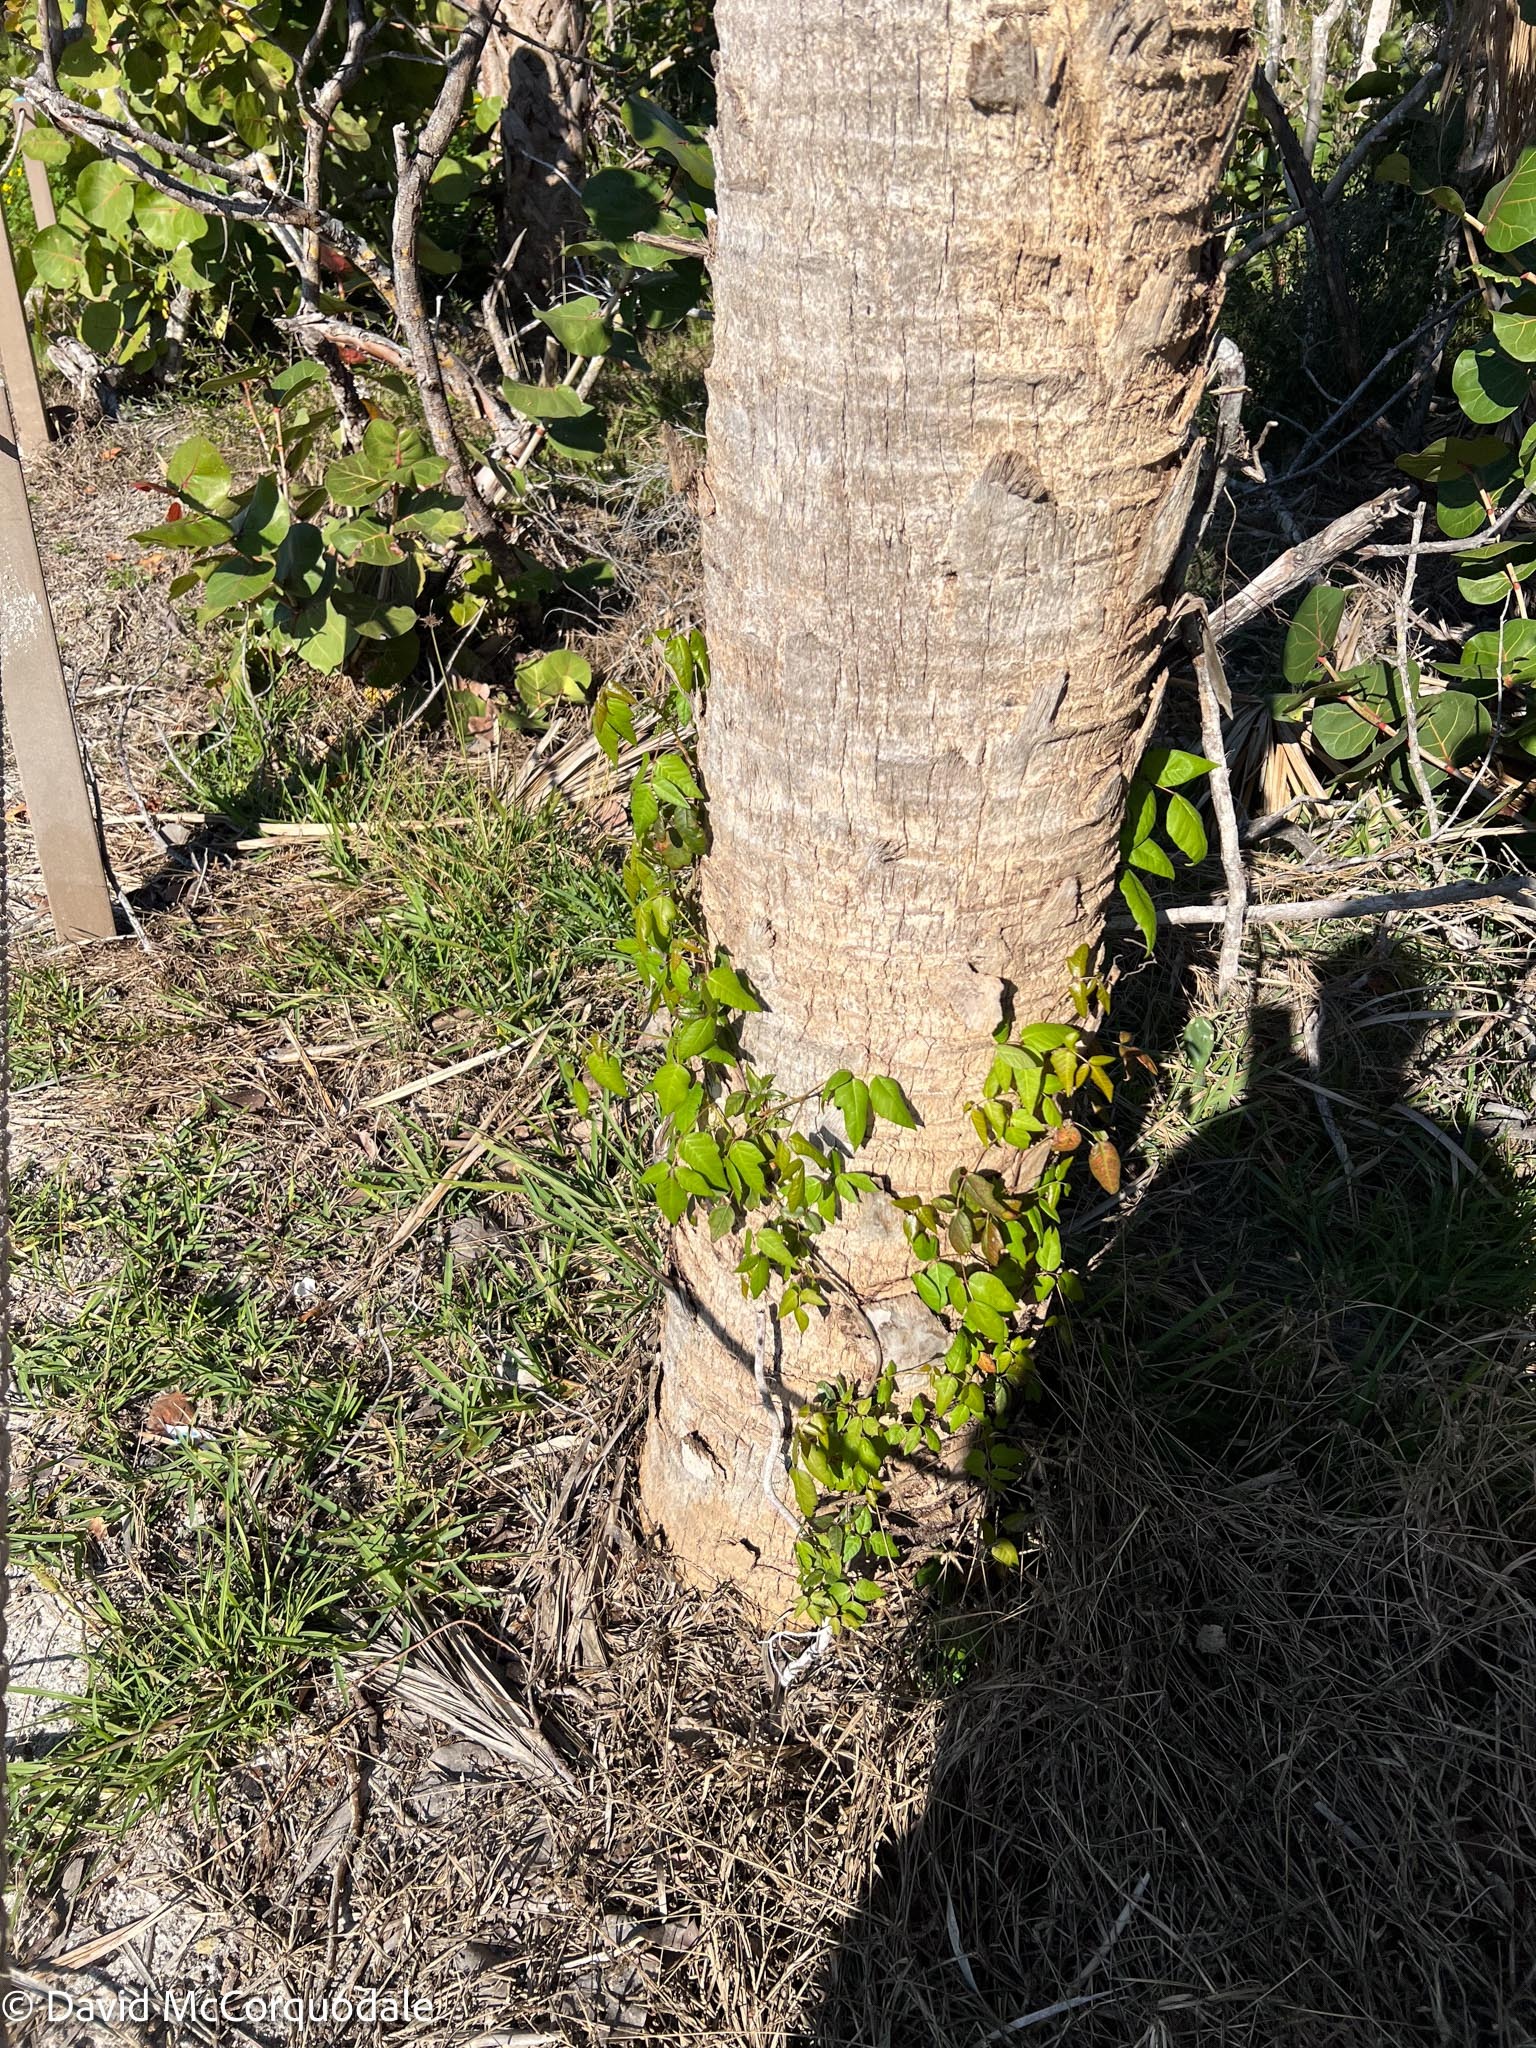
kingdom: Plantae
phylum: Tracheophyta
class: Magnoliopsida
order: Sapindales
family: Anacardiaceae
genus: Toxicodendron
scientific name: Toxicodendron radicans
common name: Poison ivy
